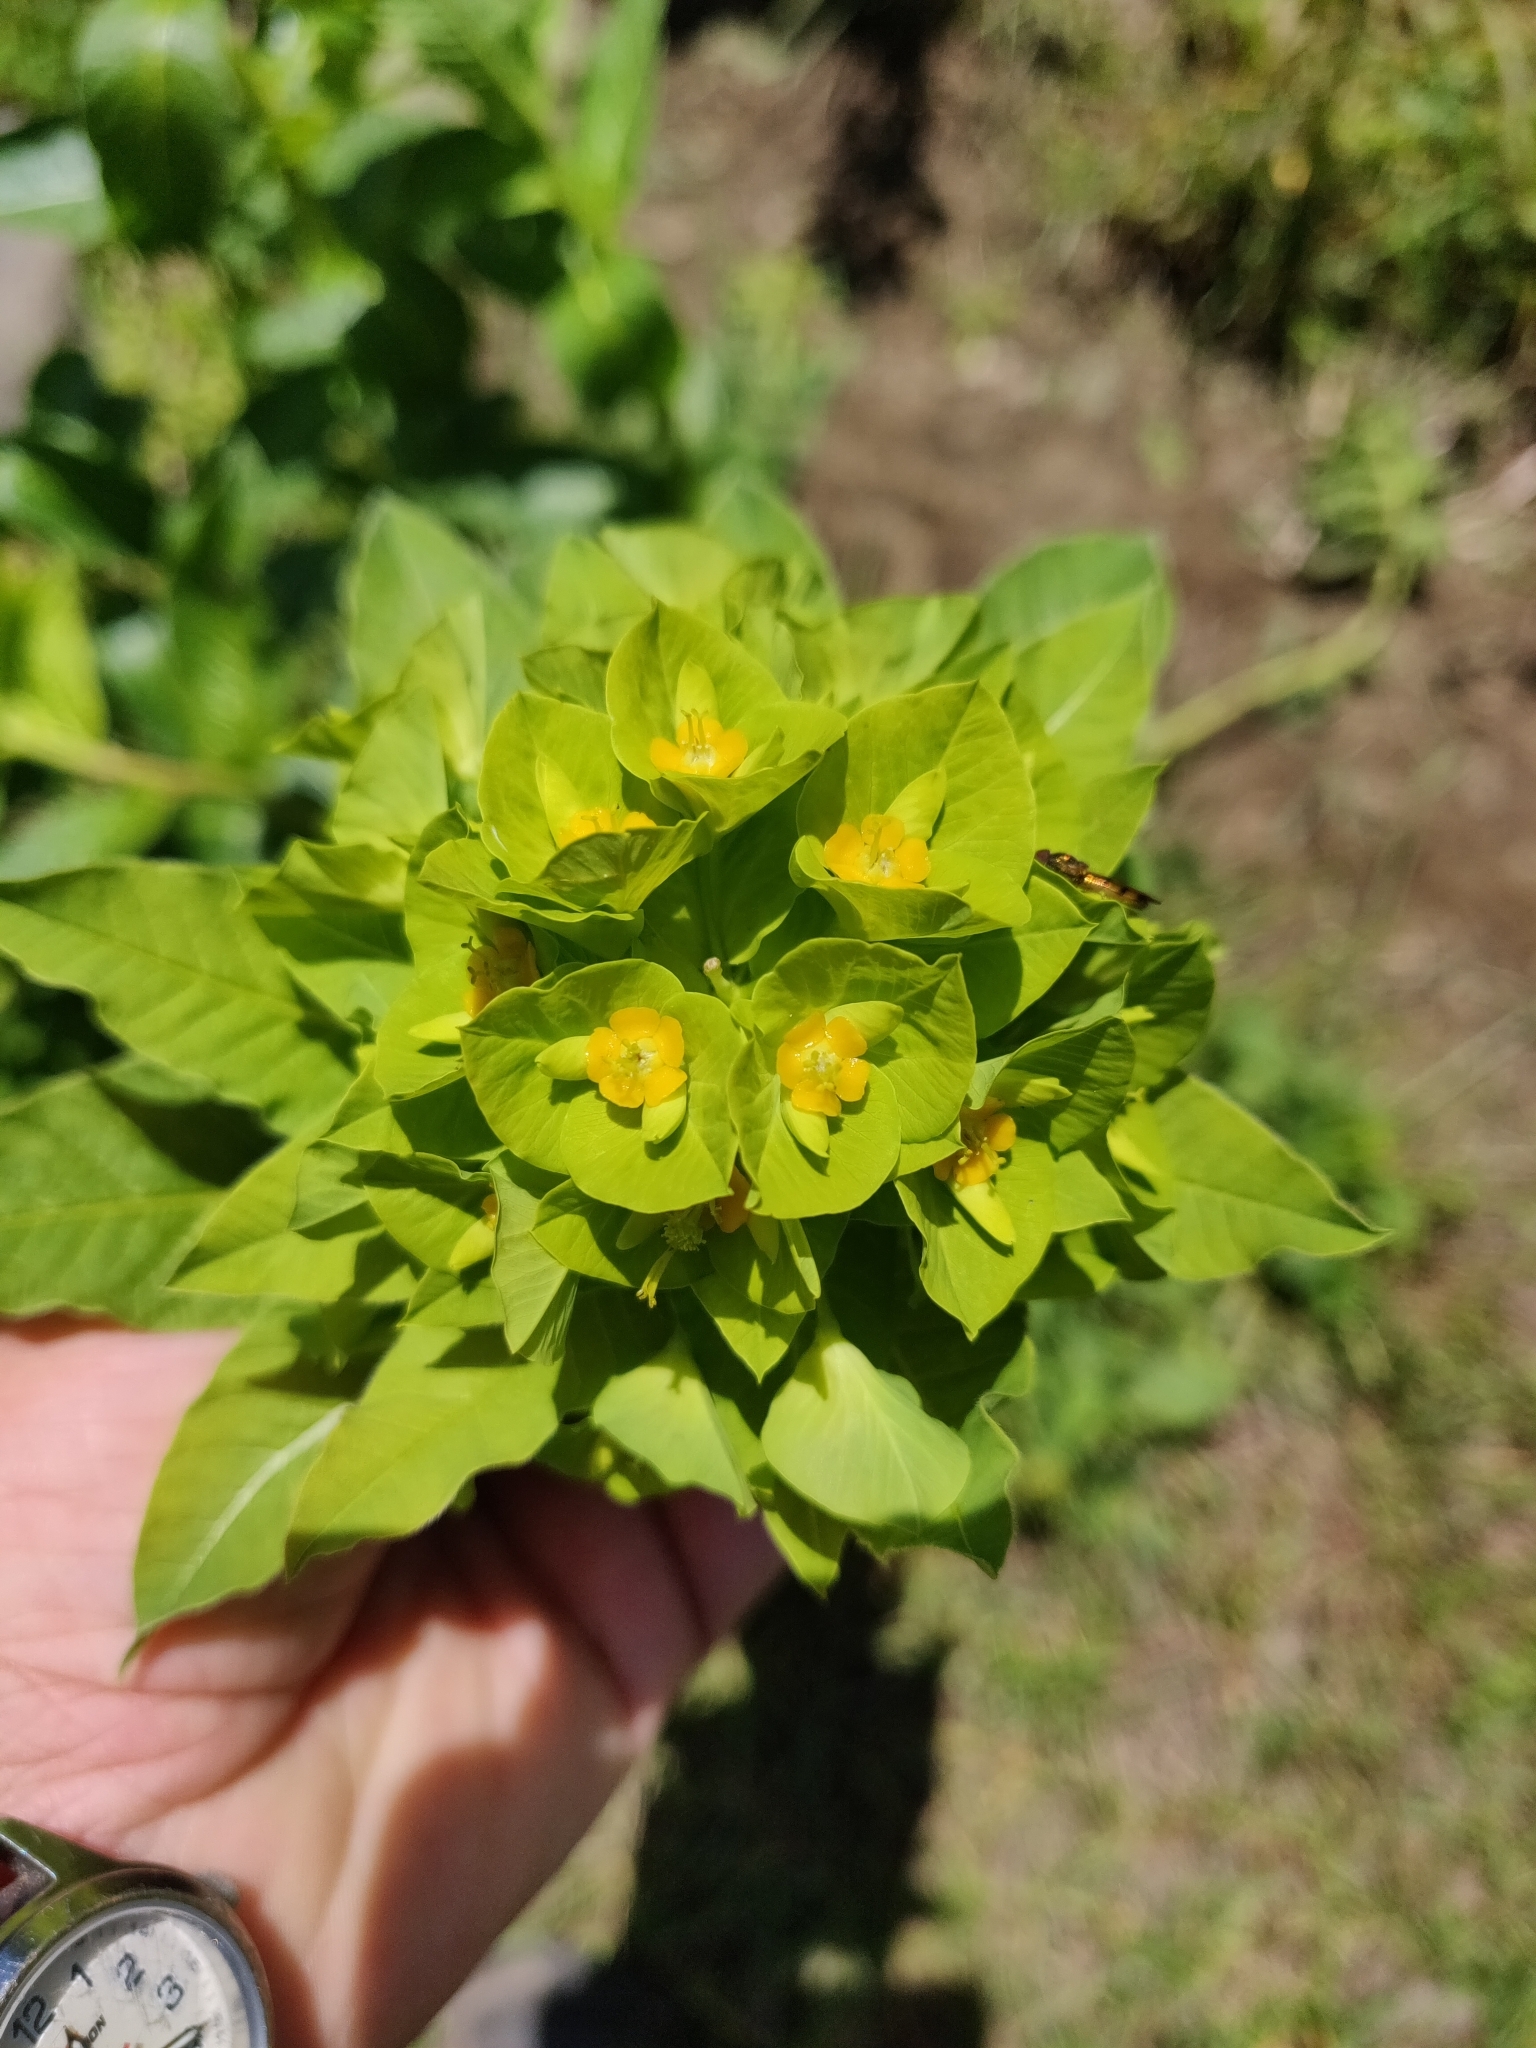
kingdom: Plantae
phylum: Tracheophyta
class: Magnoliopsida
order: Malpighiales
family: Euphorbiaceae
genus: Euphorbia
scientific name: Euphorbia squamosa
